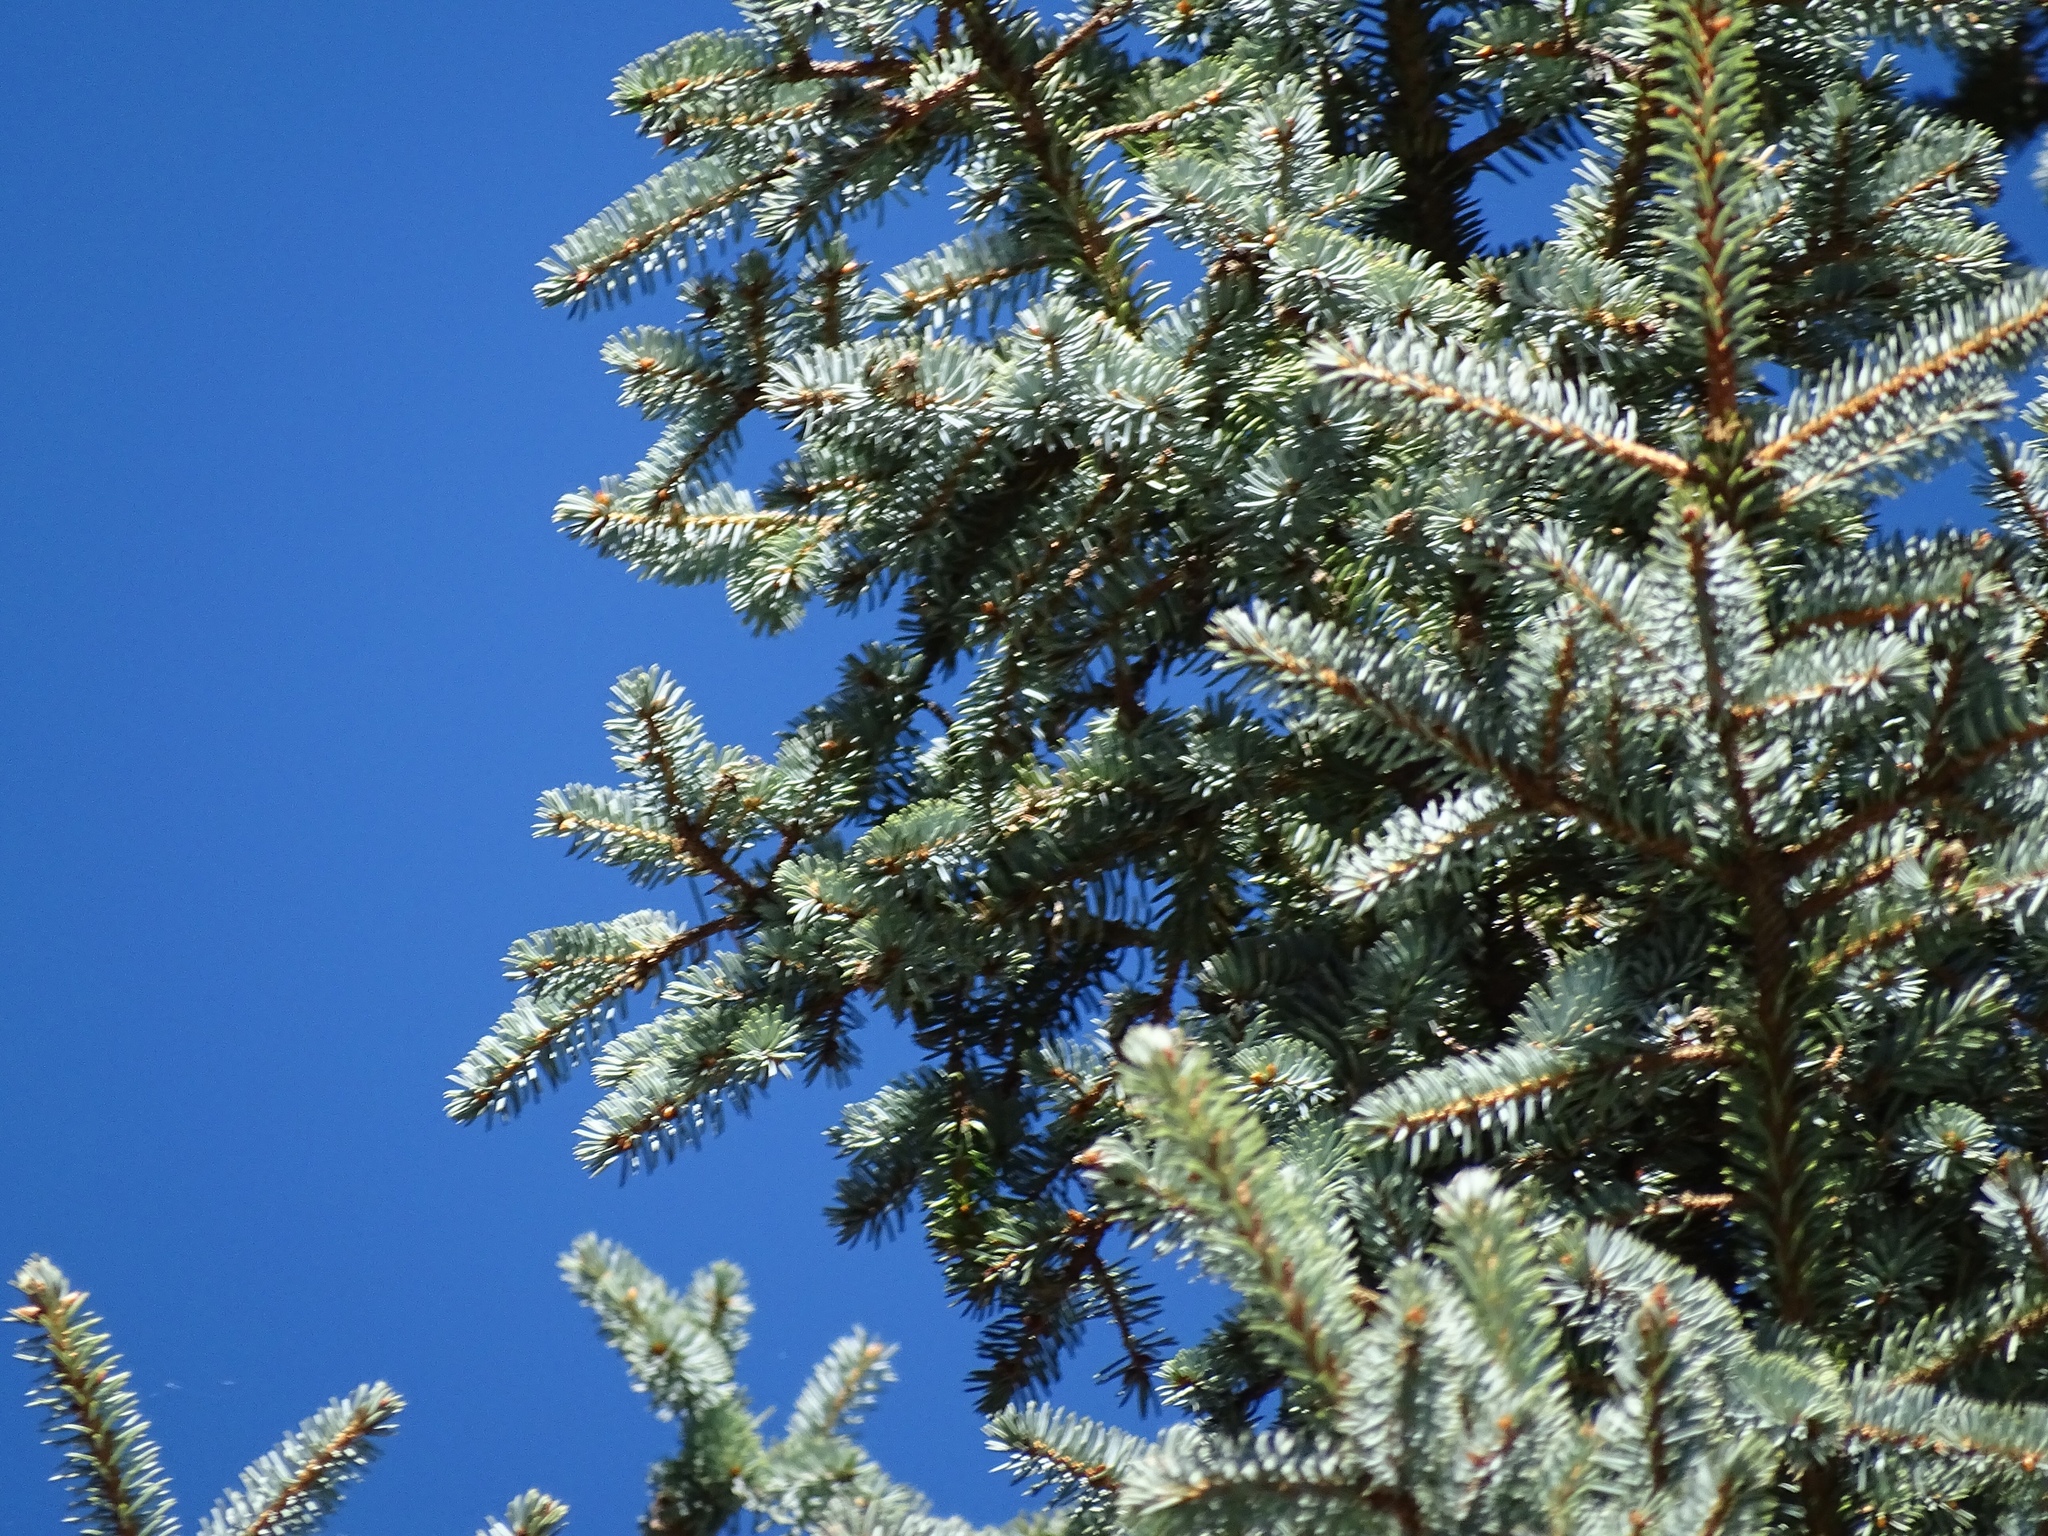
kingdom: Plantae
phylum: Tracheophyta
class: Pinopsida
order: Pinales
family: Pinaceae
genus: Picea
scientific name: Picea pungens
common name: Colorado spruce
